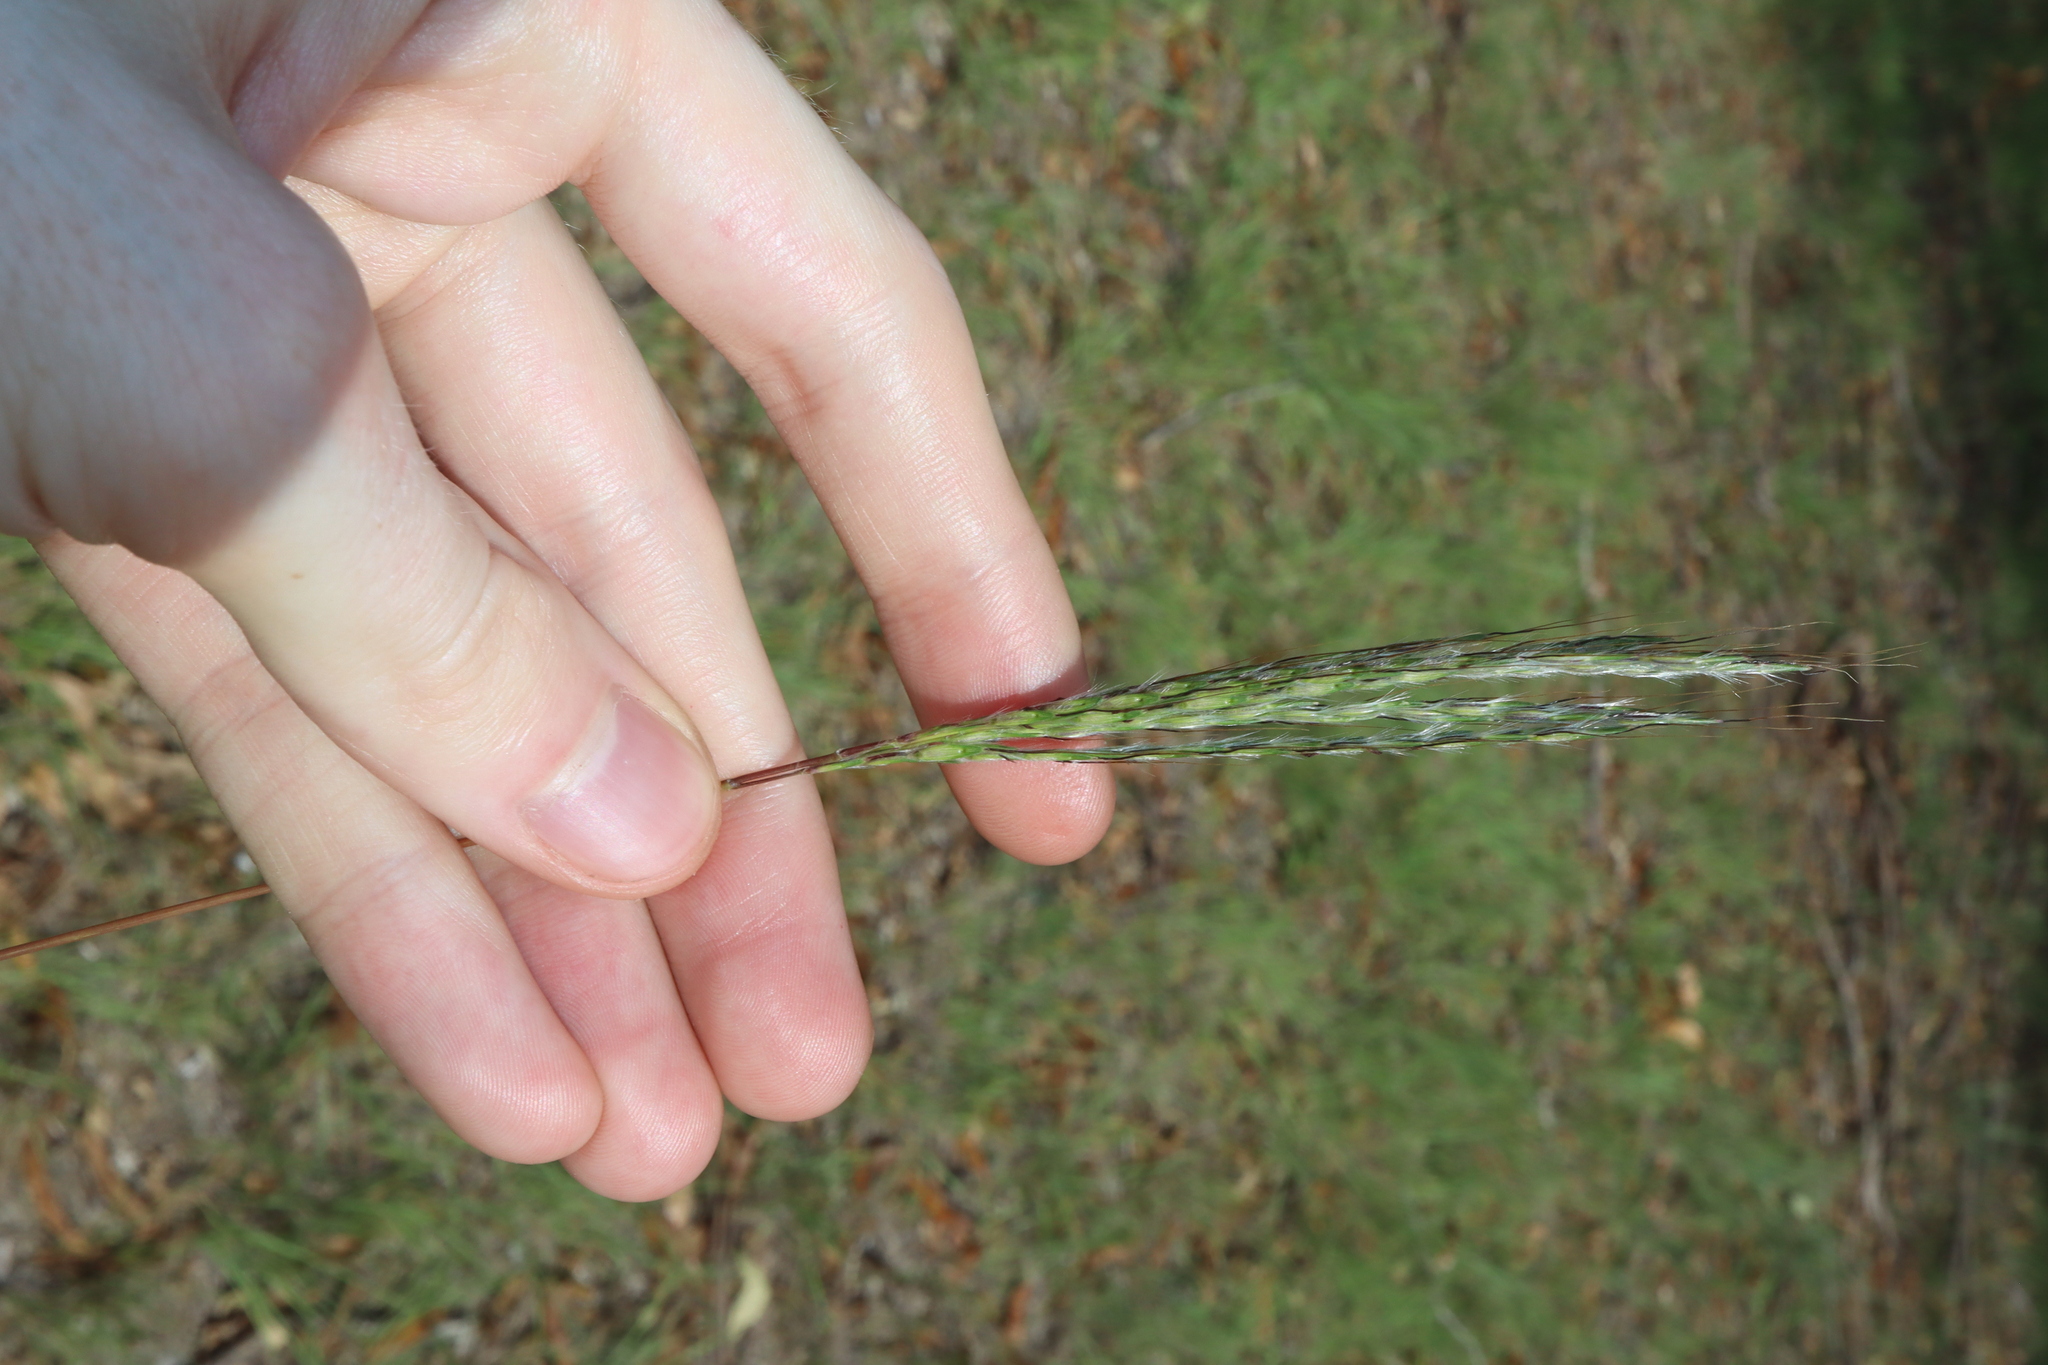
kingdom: Plantae
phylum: Tracheophyta
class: Liliopsida
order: Poales
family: Poaceae
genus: Bothriochloa
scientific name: Bothriochloa macra
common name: Pitted beard grass
